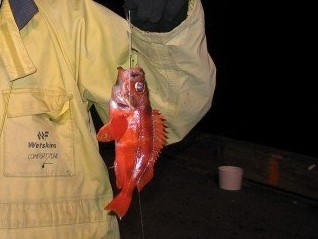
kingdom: Animalia
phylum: Chordata
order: Scorpaeniformes
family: Sebastidae
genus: Sebastes
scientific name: Sebastes mentella
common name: Deepwater redfish
